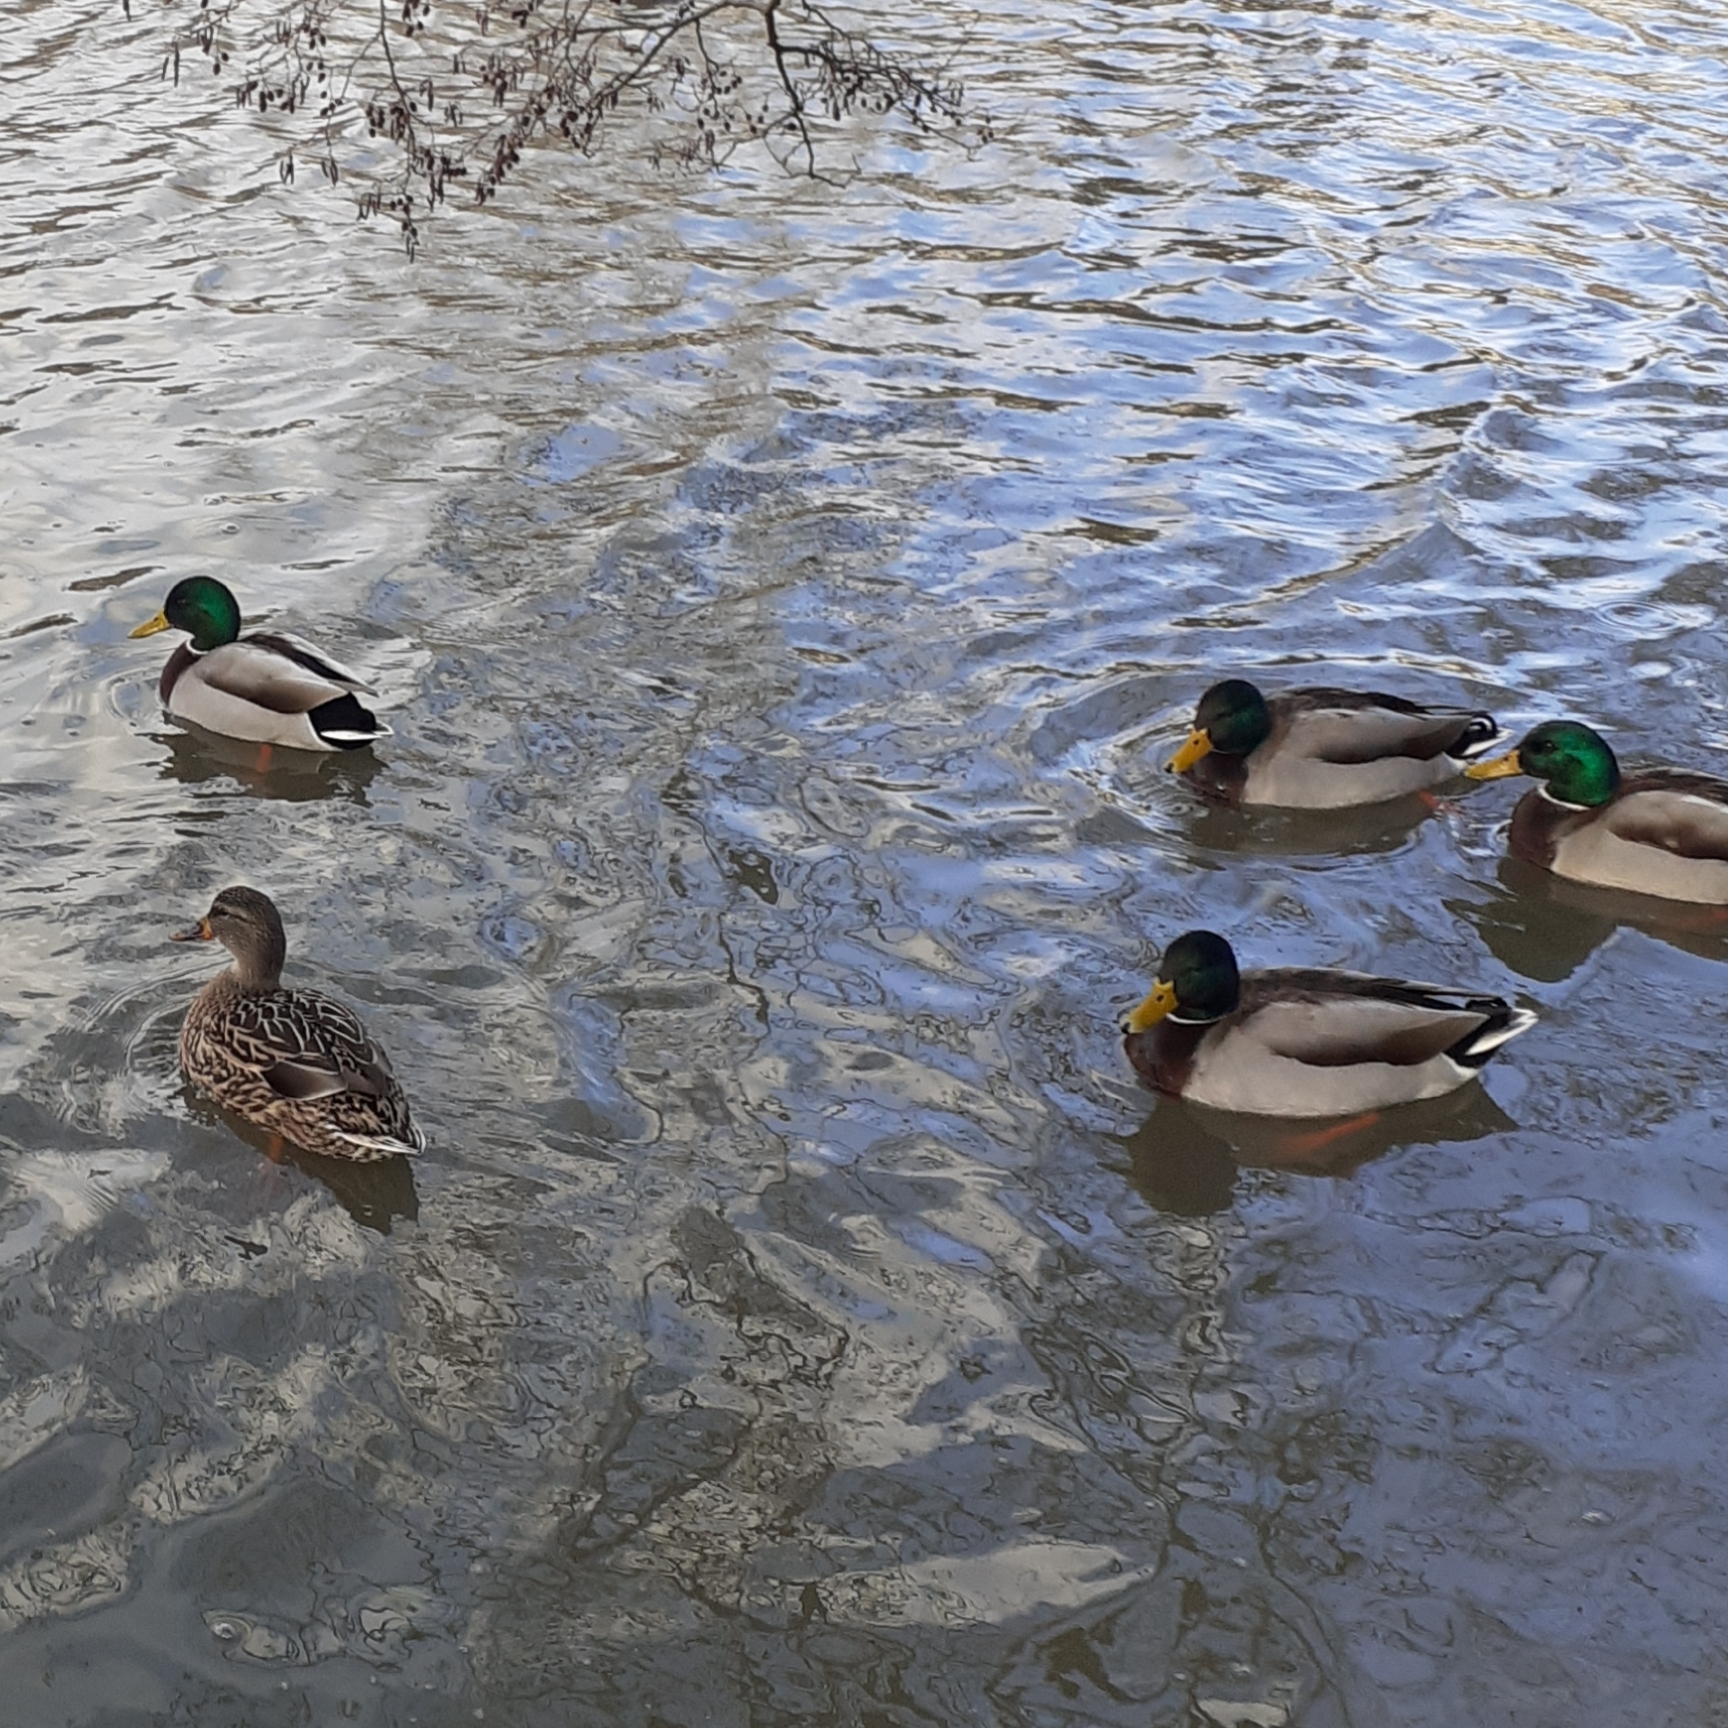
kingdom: Animalia
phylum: Chordata
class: Aves
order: Anseriformes
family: Anatidae
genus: Anas
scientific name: Anas platyrhynchos
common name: Mallard
